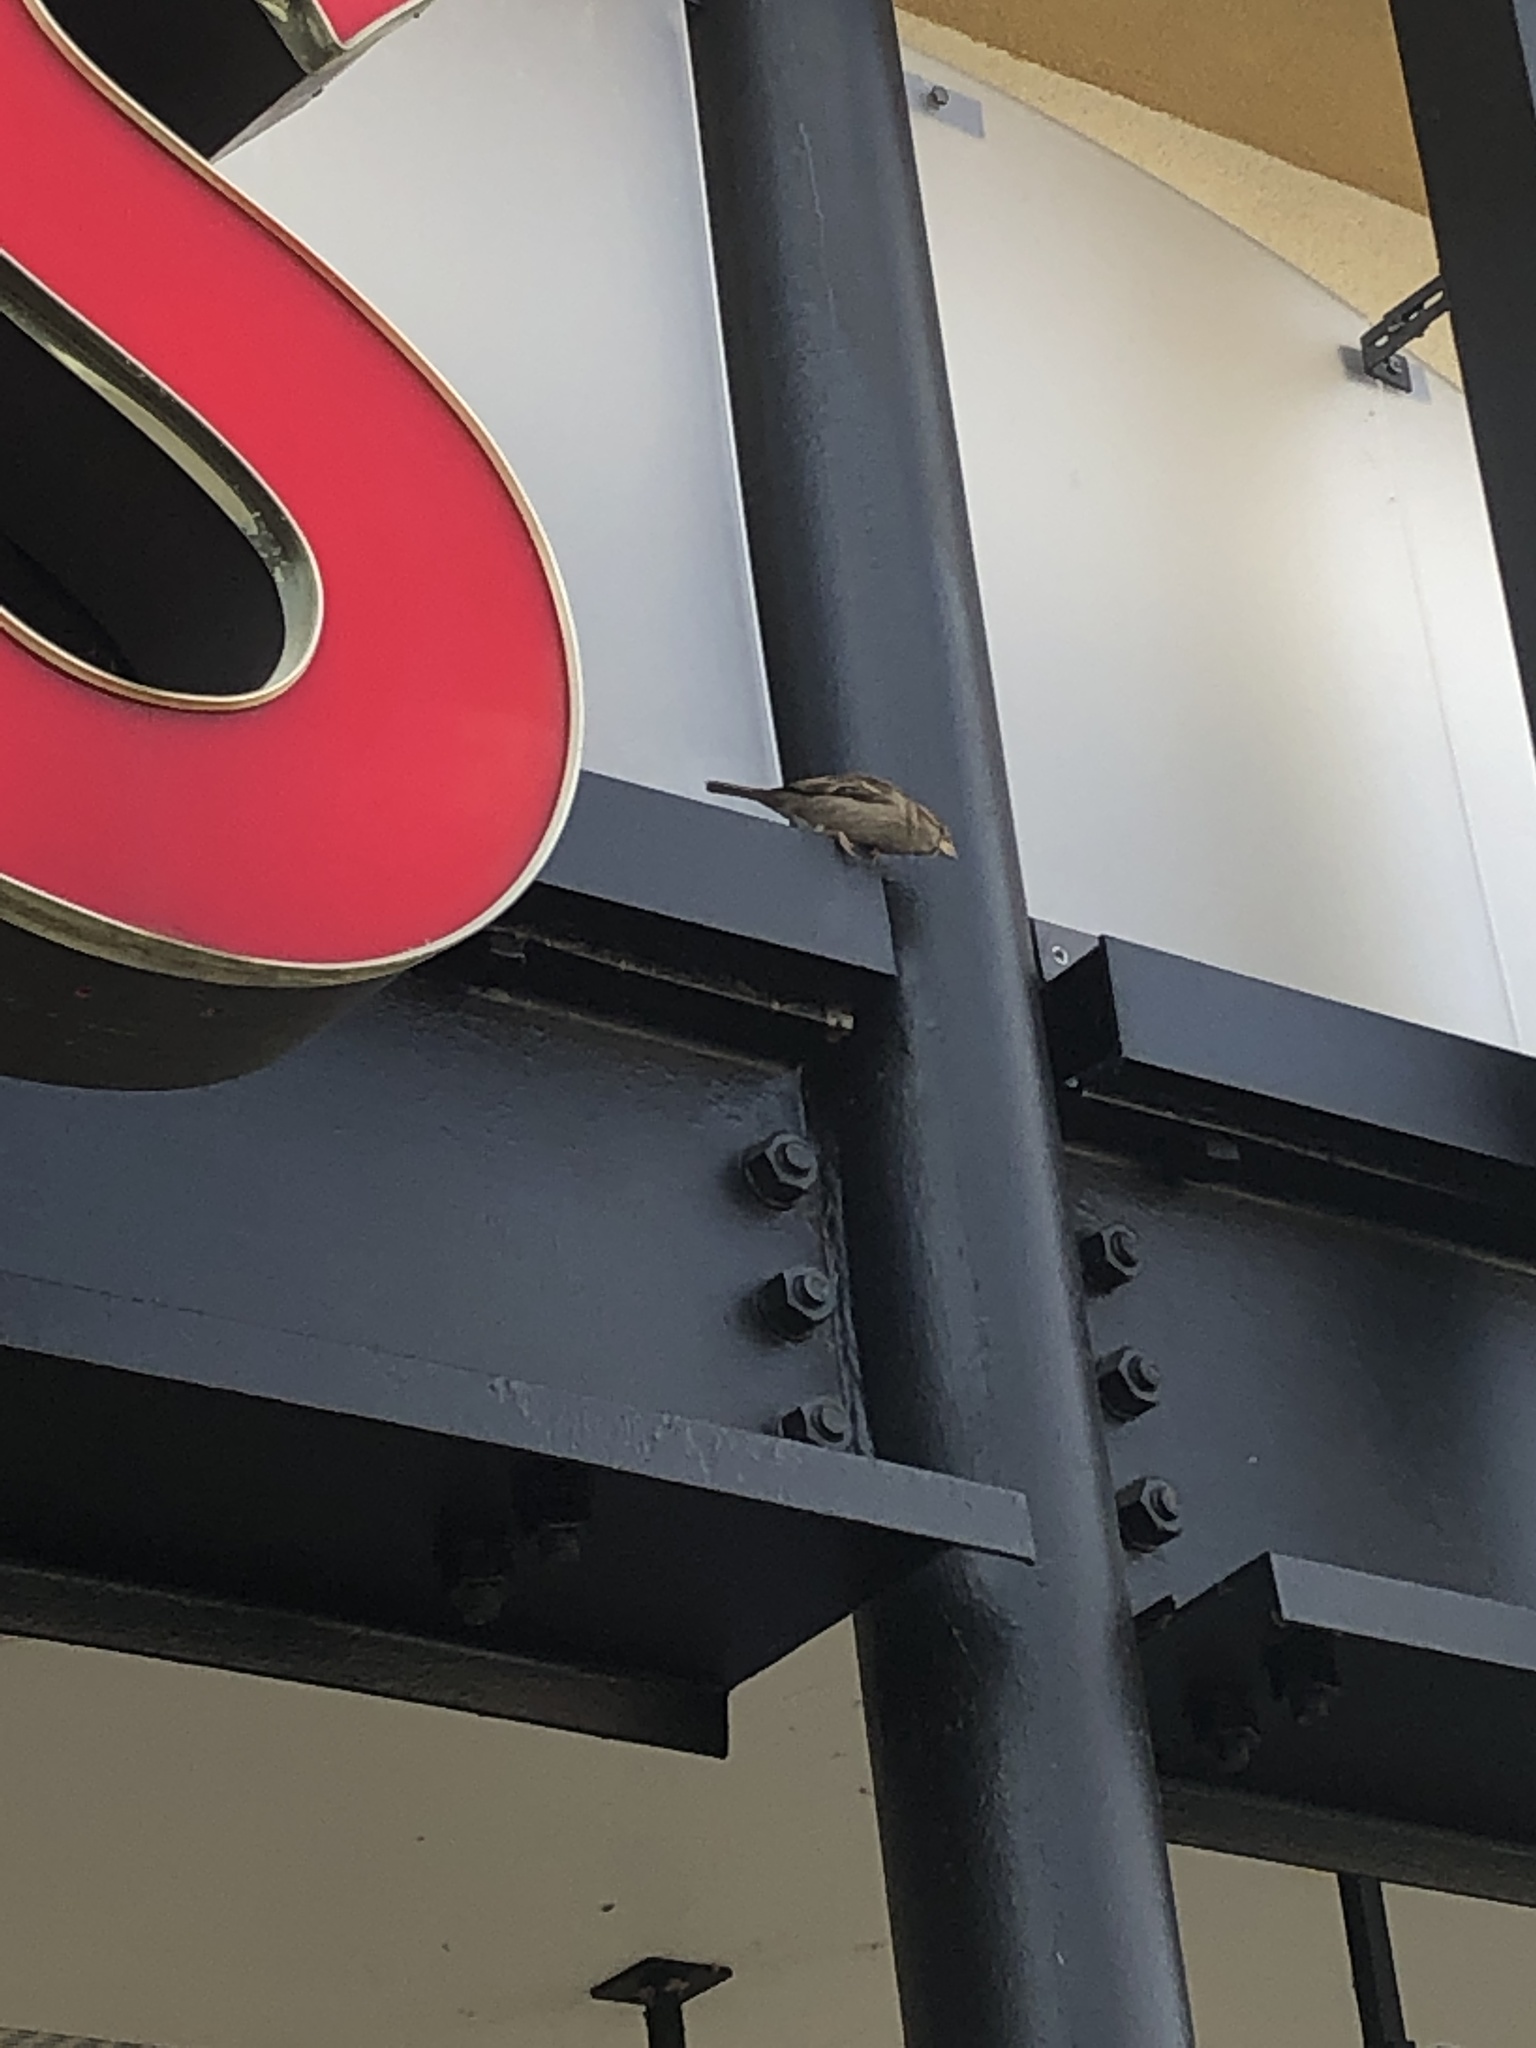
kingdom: Animalia
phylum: Chordata
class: Aves
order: Passeriformes
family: Passeridae
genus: Passer
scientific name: Passer domesticus
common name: House sparrow
